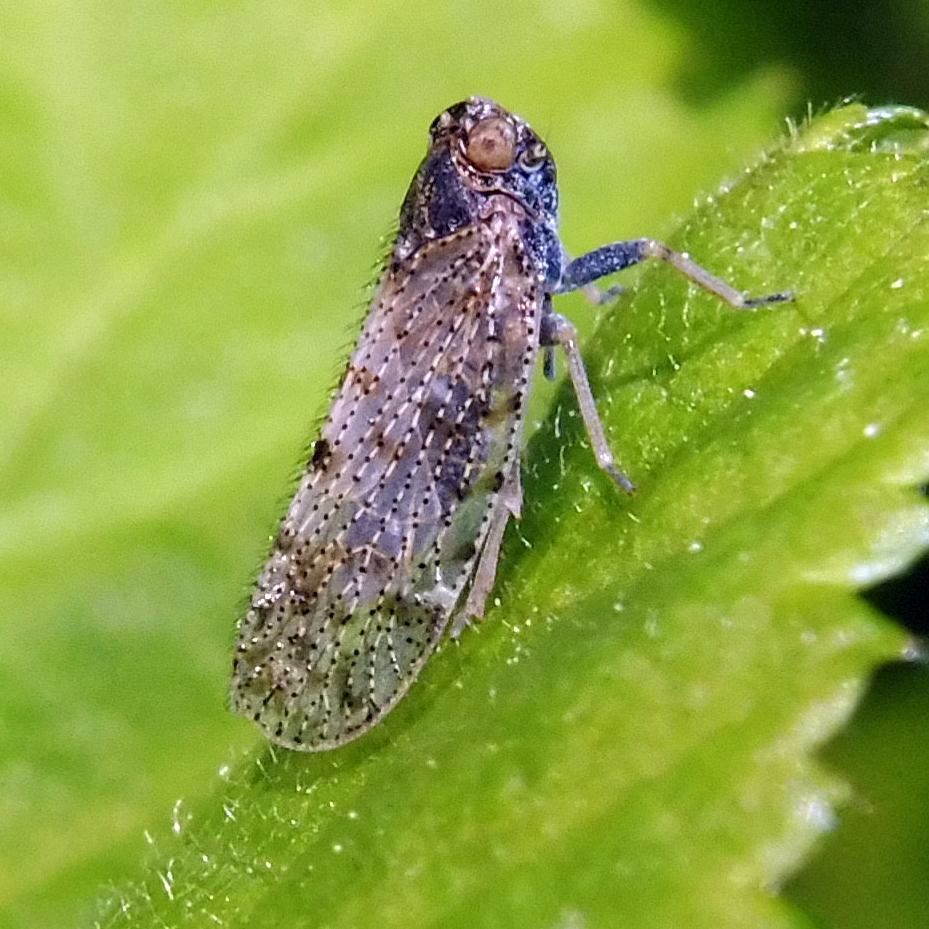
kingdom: Animalia
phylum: Arthropoda
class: Insecta
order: Hemiptera
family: Cixiidae
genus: Tachycixius
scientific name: Tachycixius pilosus
